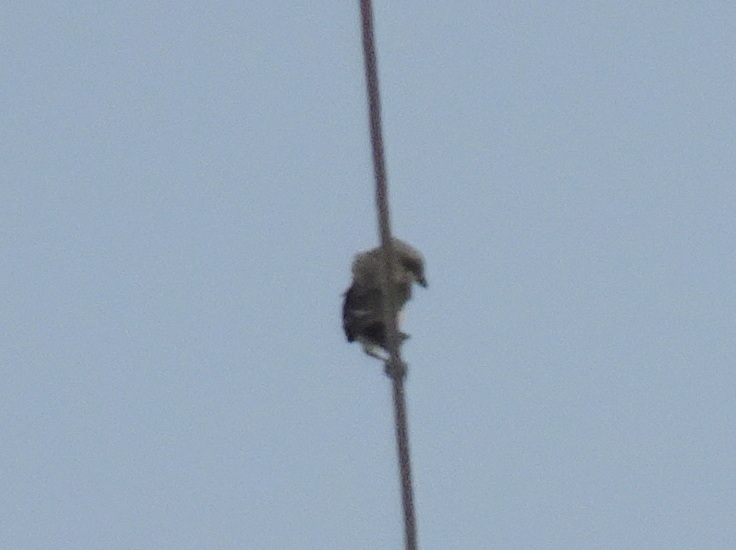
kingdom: Animalia
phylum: Chordata
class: Aves
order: Passeriformes
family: Laniidae
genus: Lanius
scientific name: Lanius ludovicianus
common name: Loggerhead shrike
